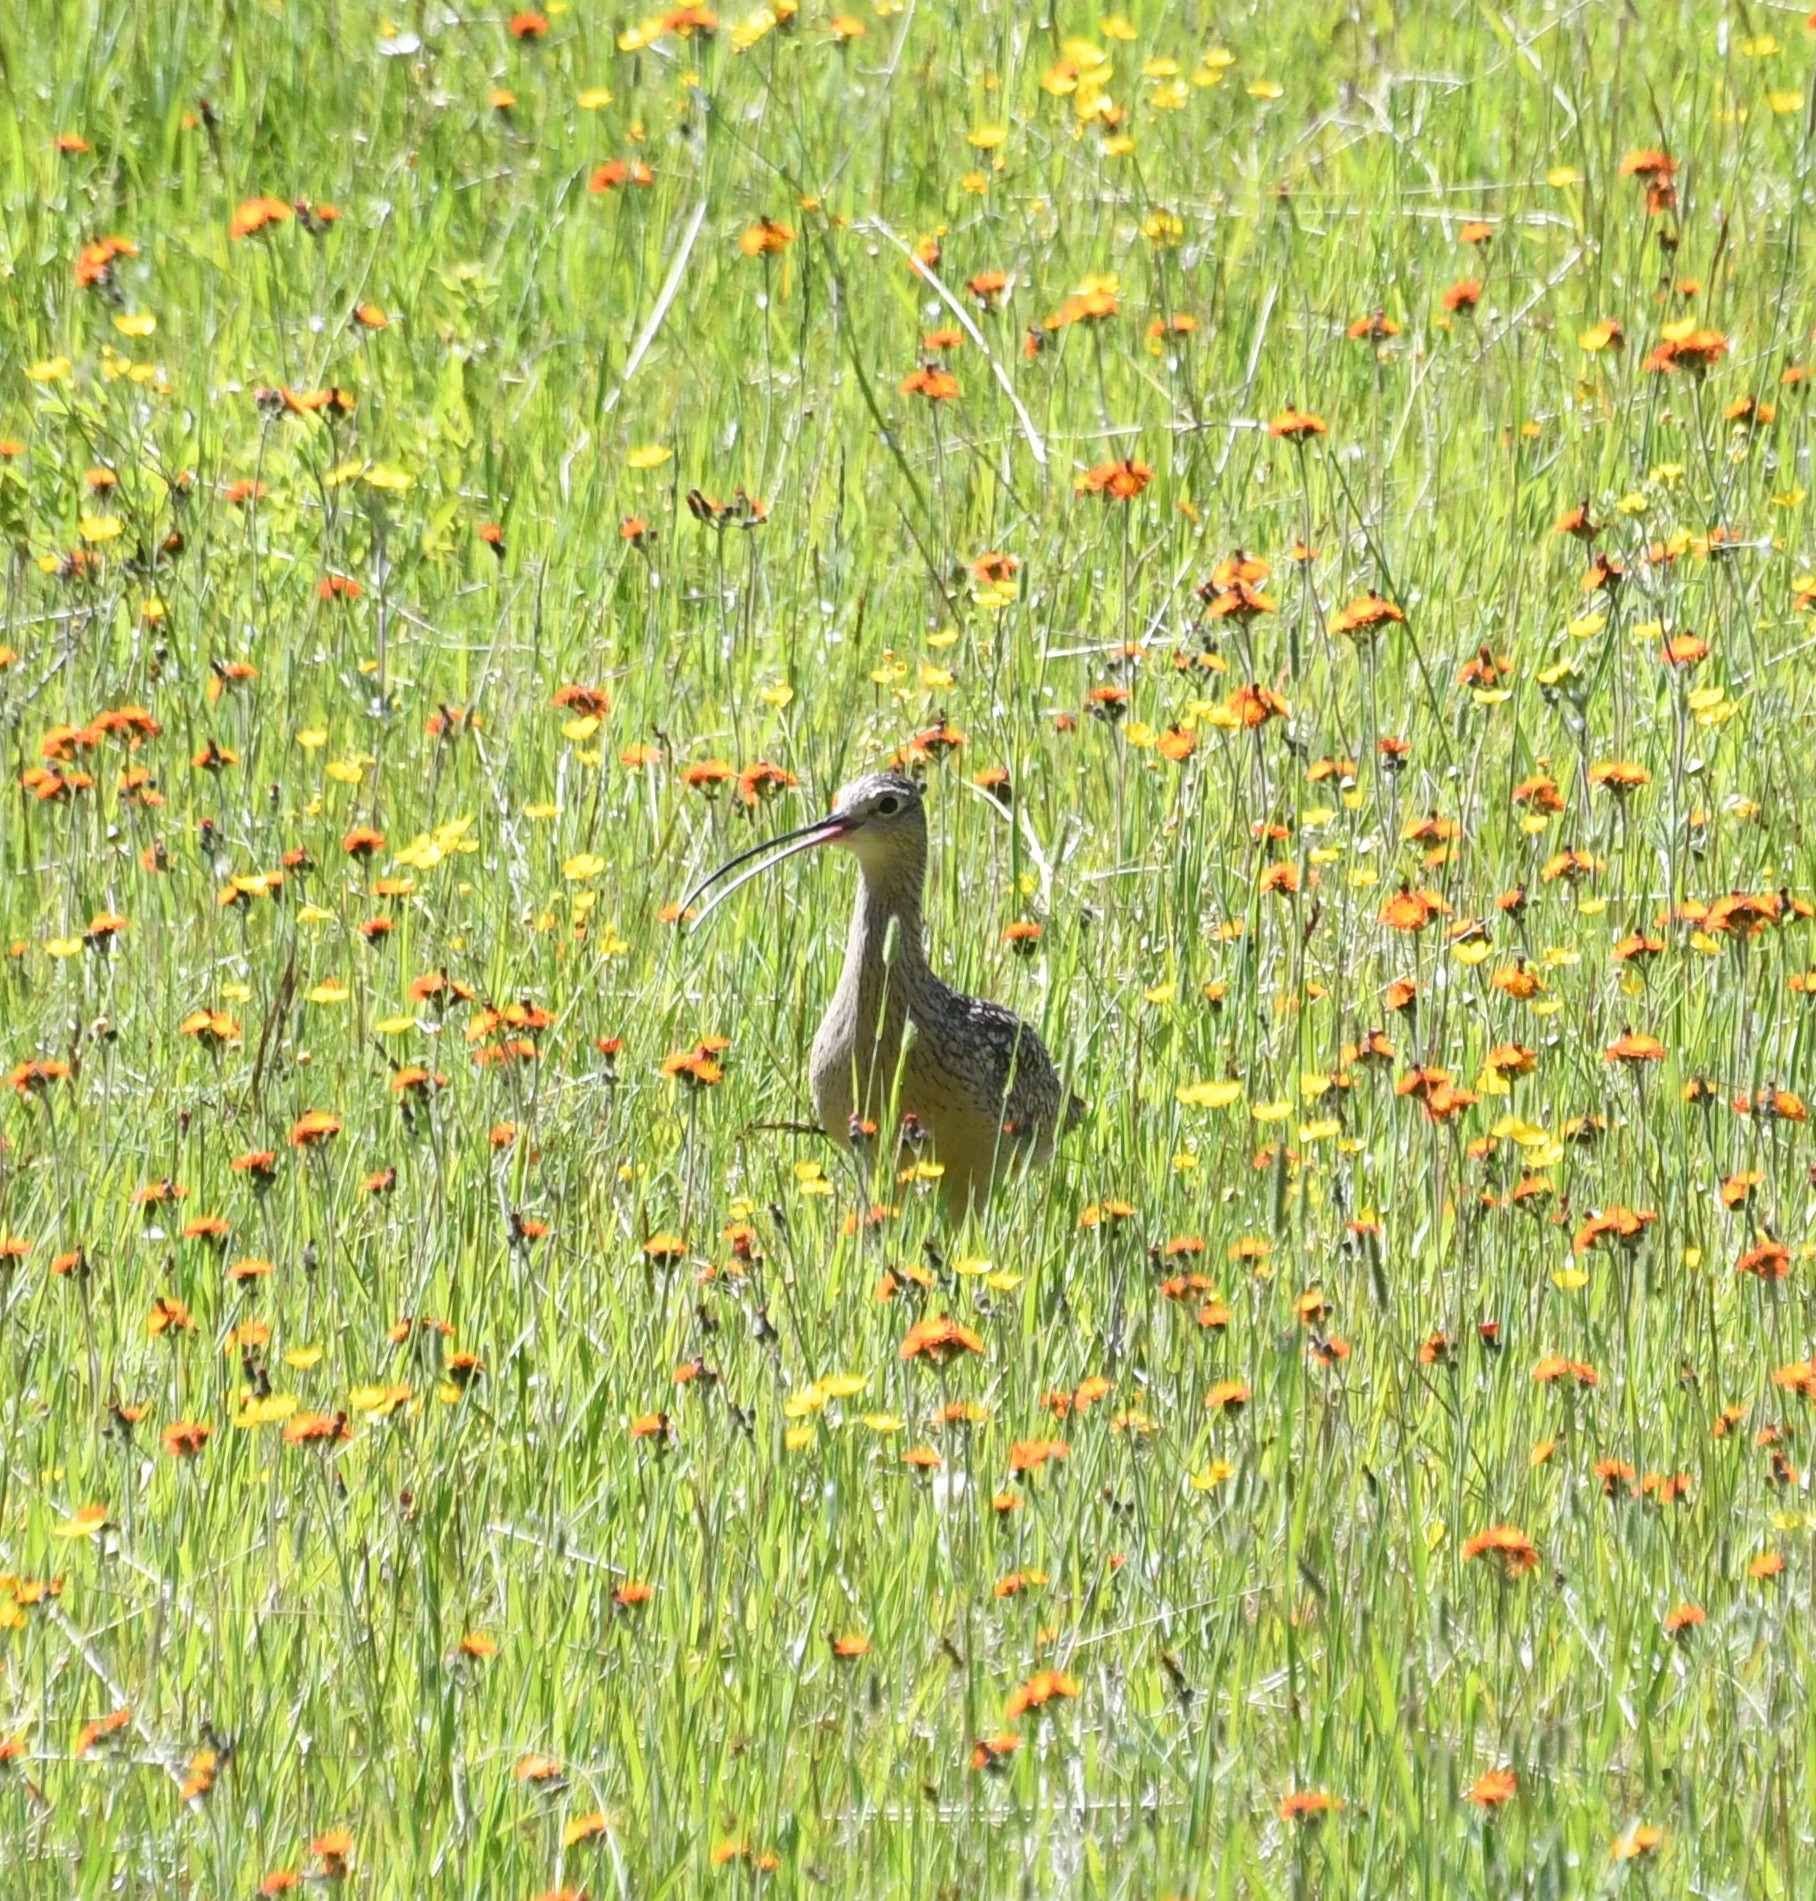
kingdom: Animalia
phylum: Chordata
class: Aves
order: Charadriiformes
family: Scolopacidae
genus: Numenius
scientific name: Numenius americanus
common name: Long-billed curlew
